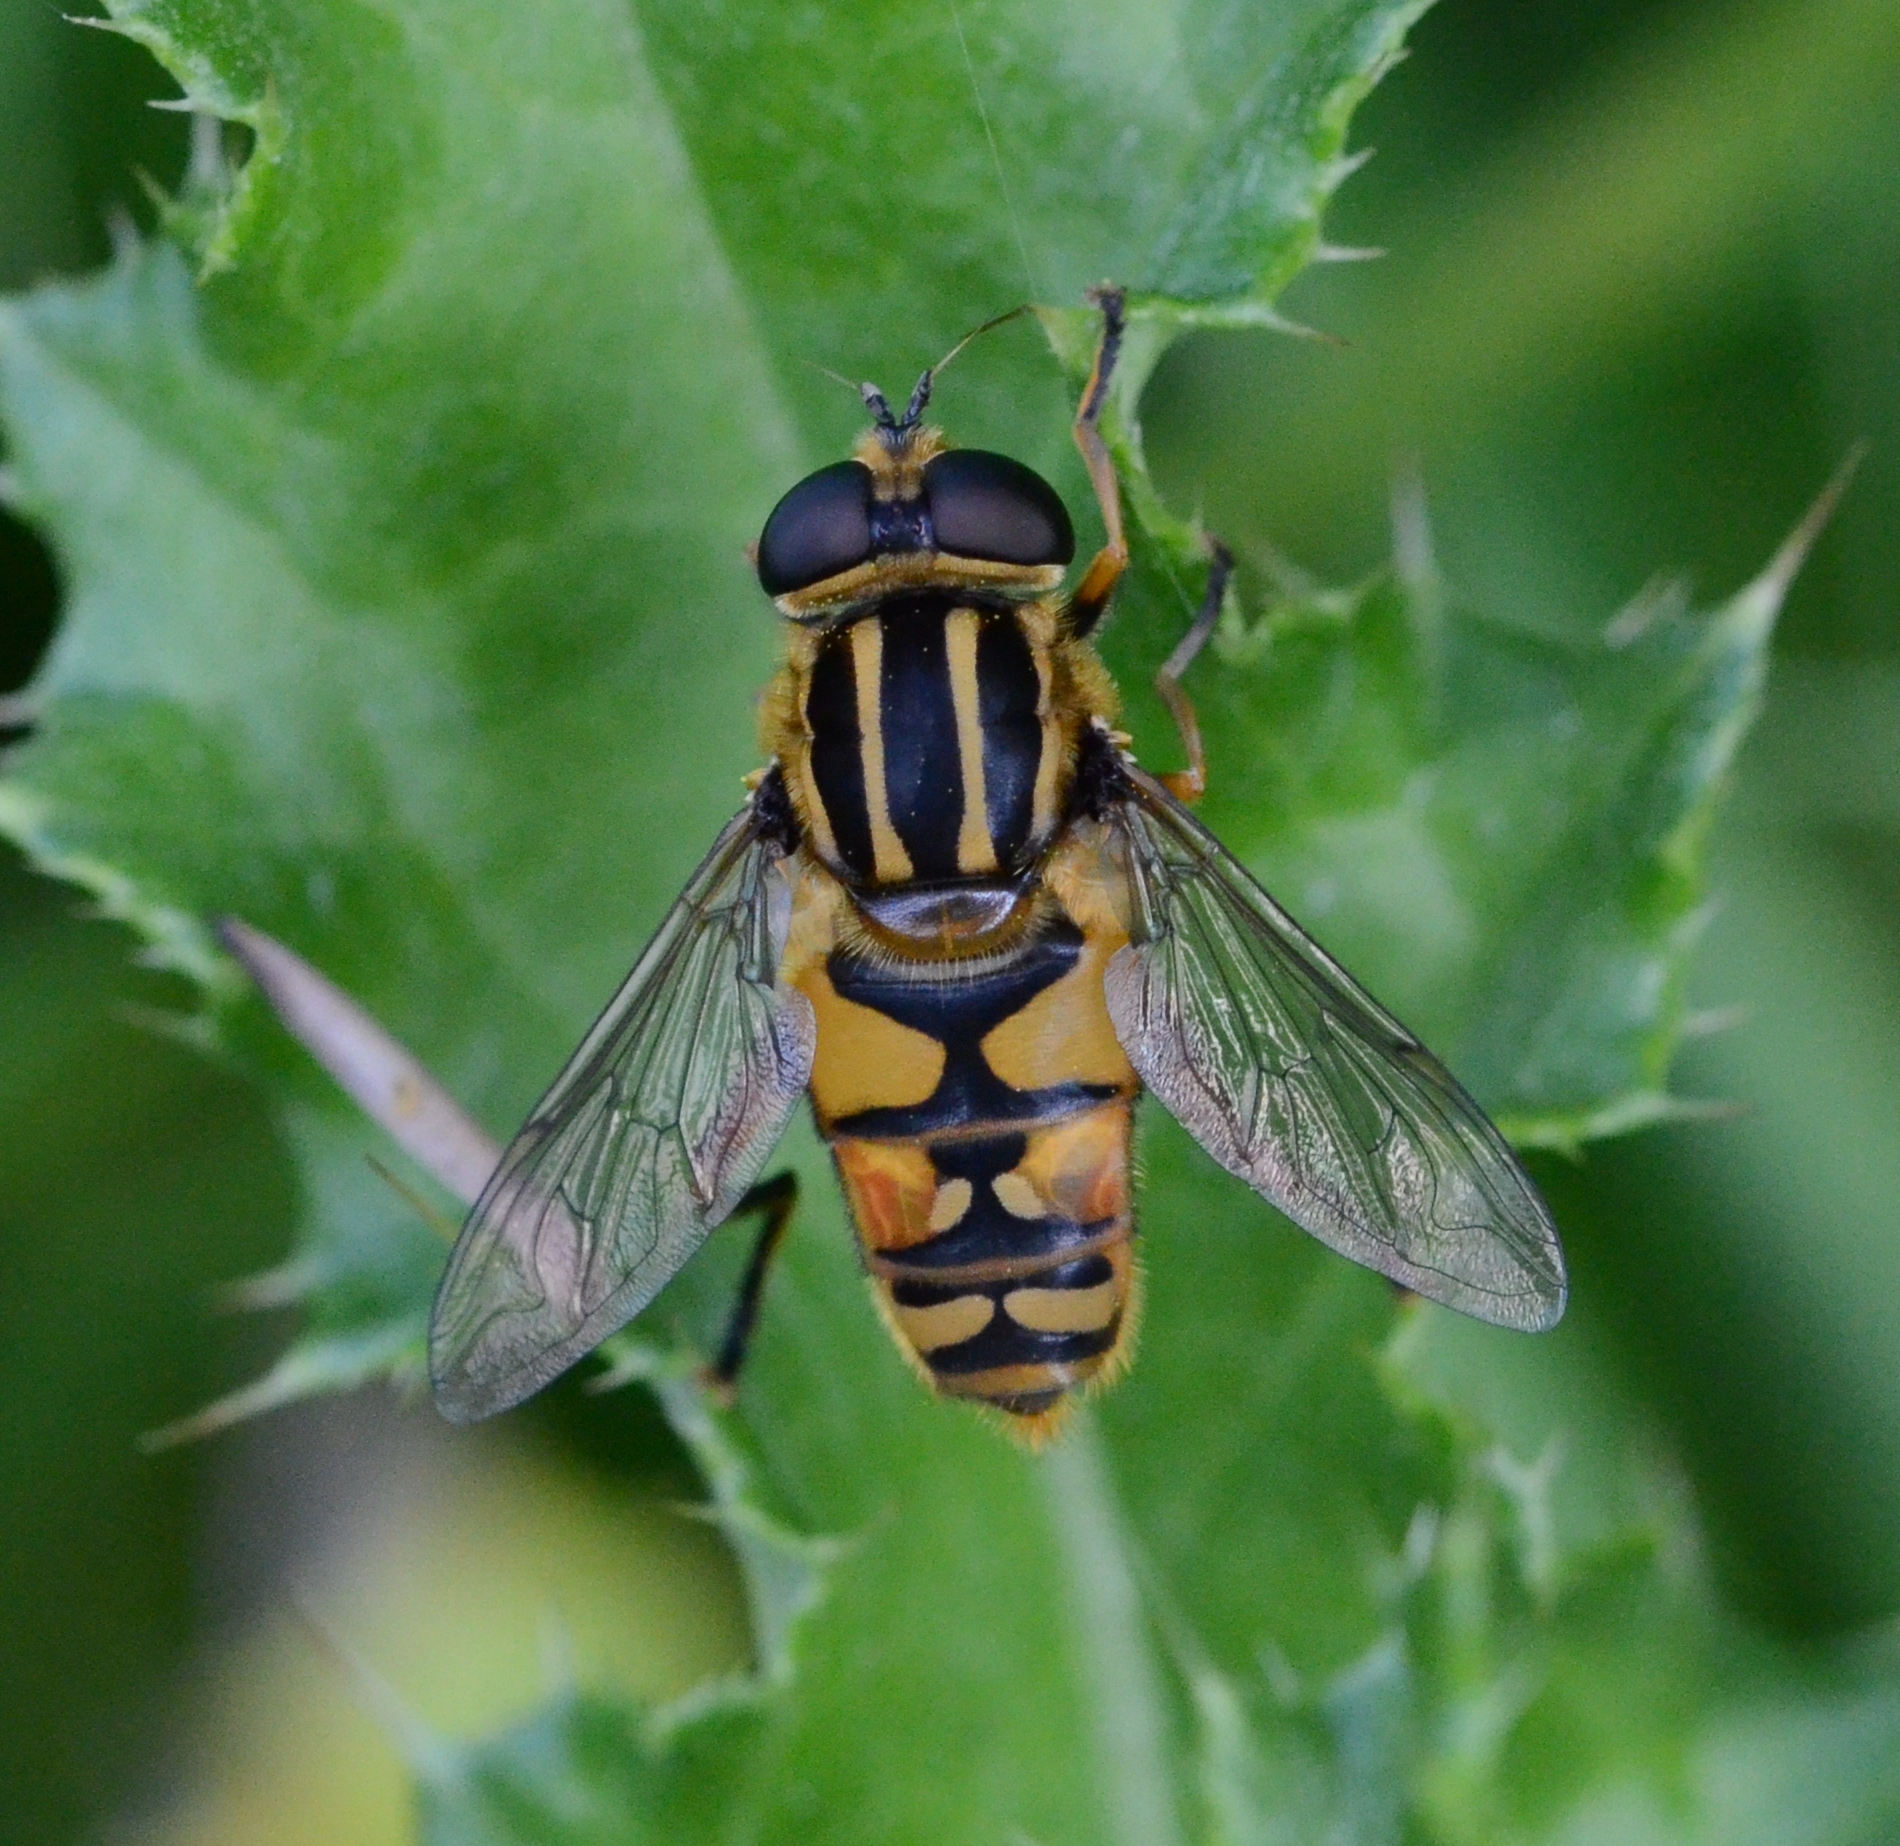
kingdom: Animalia
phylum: Arthropoda
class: Insecta
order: Diptera
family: Syrphidae
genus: Helophilus
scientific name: Helophilus pendulus
